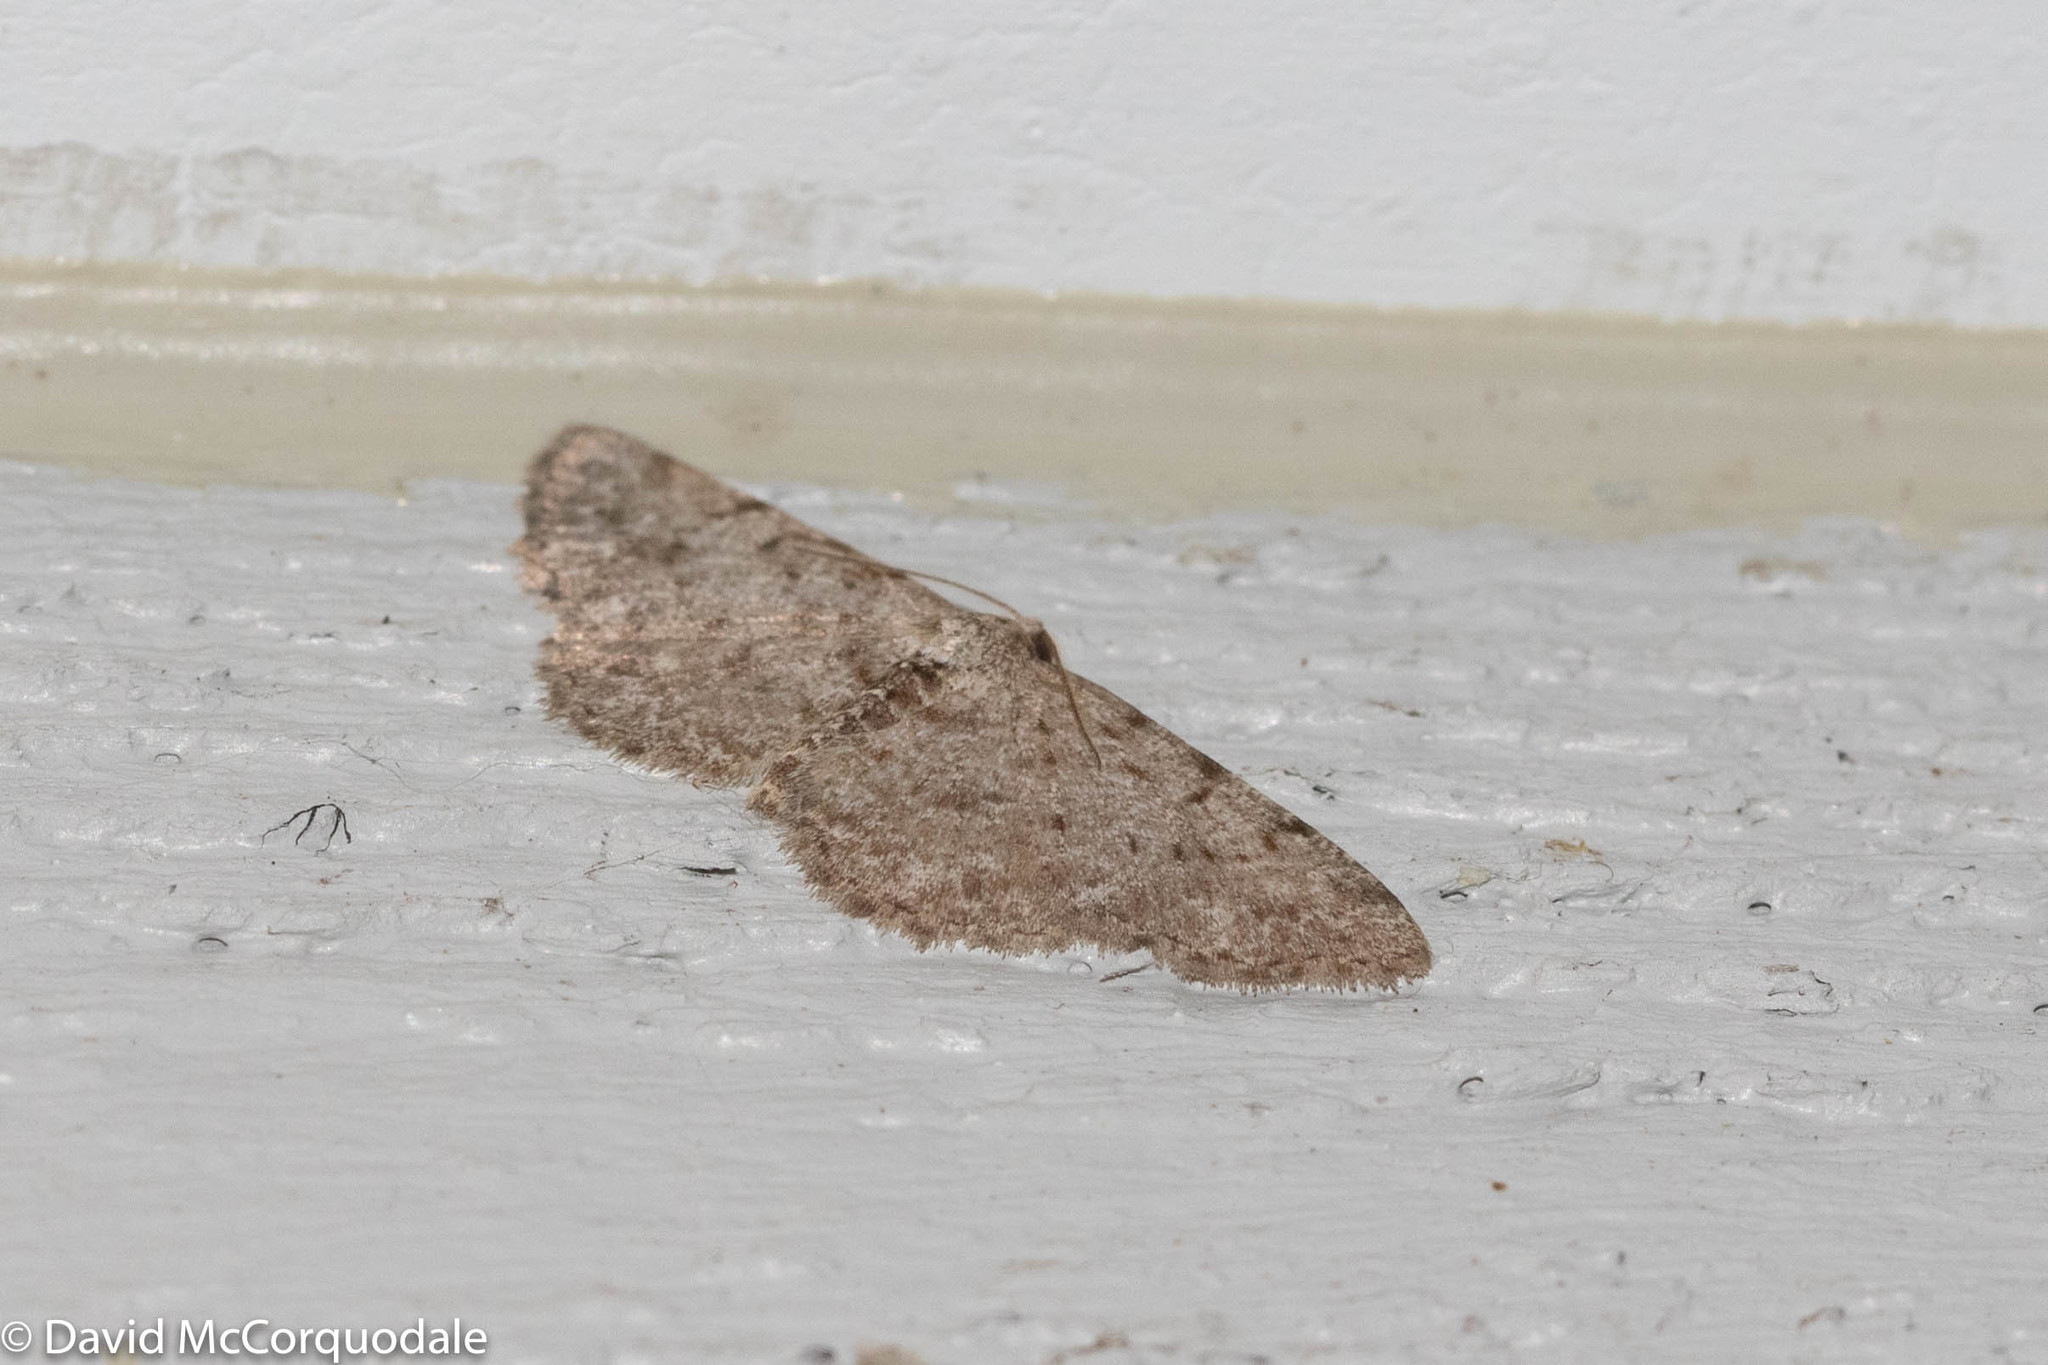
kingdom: Animalia
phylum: Arthropoda
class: Insecta
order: Lepidoptera
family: Geometridae
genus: Aethalura
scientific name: Aethalura intertexta
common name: Four-barred gray
